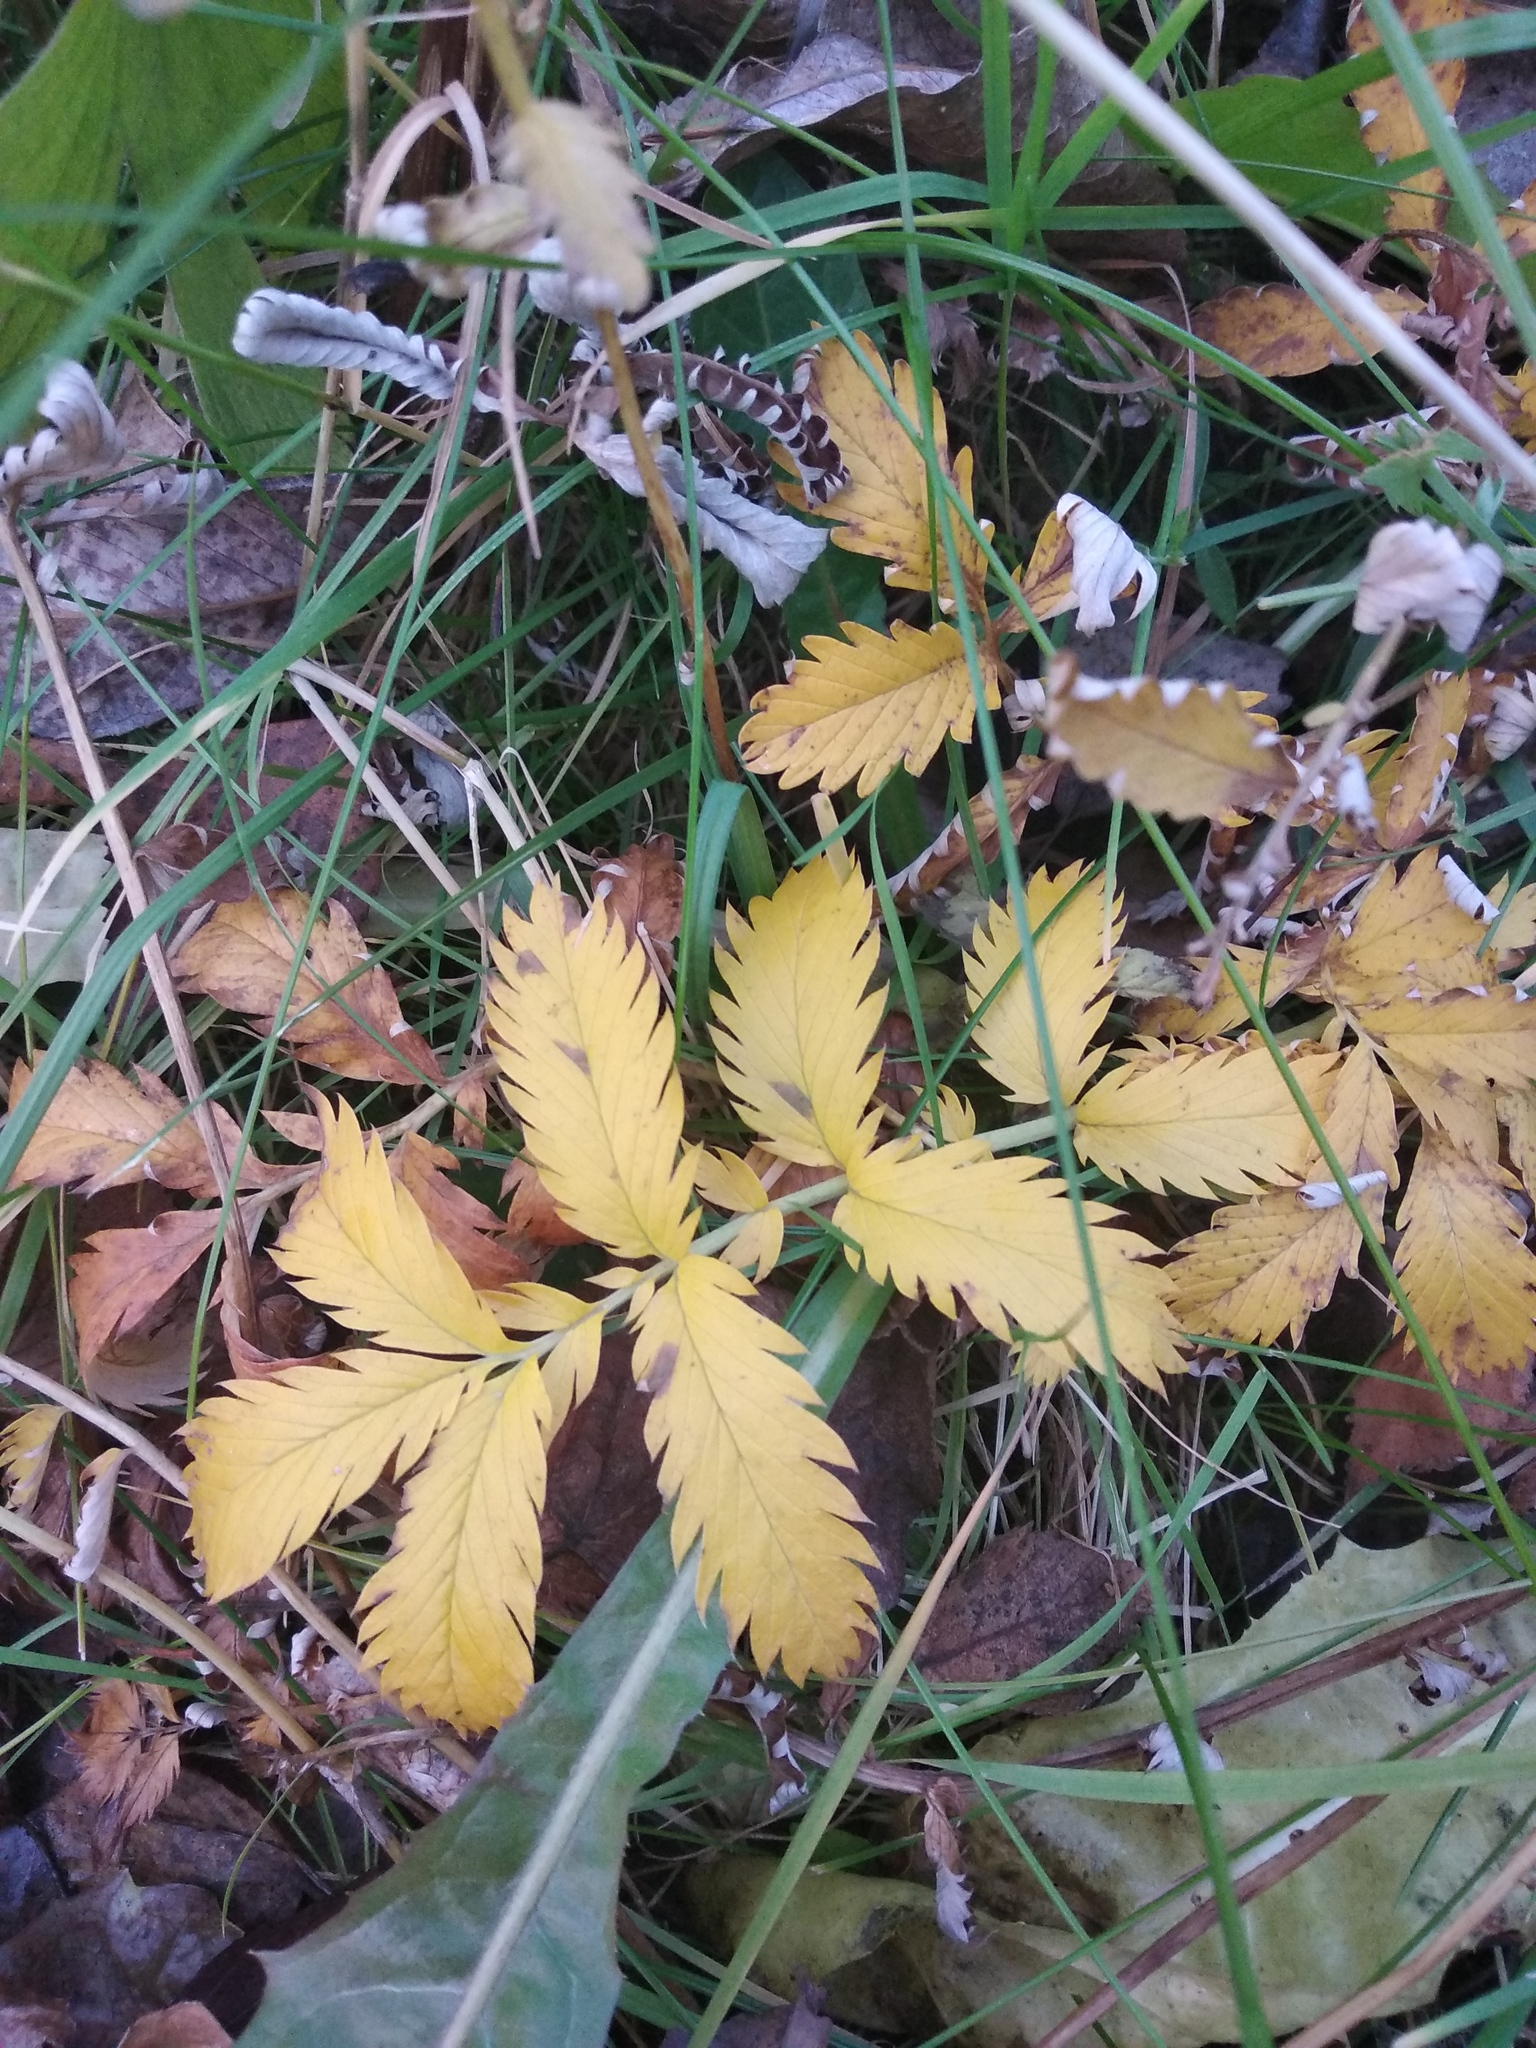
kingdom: Plantae
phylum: Tracheophyta
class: Magnoliopsida
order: Rosales
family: Rosaceae
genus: Argentina
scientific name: Argentina anserina
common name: Common silverweed
